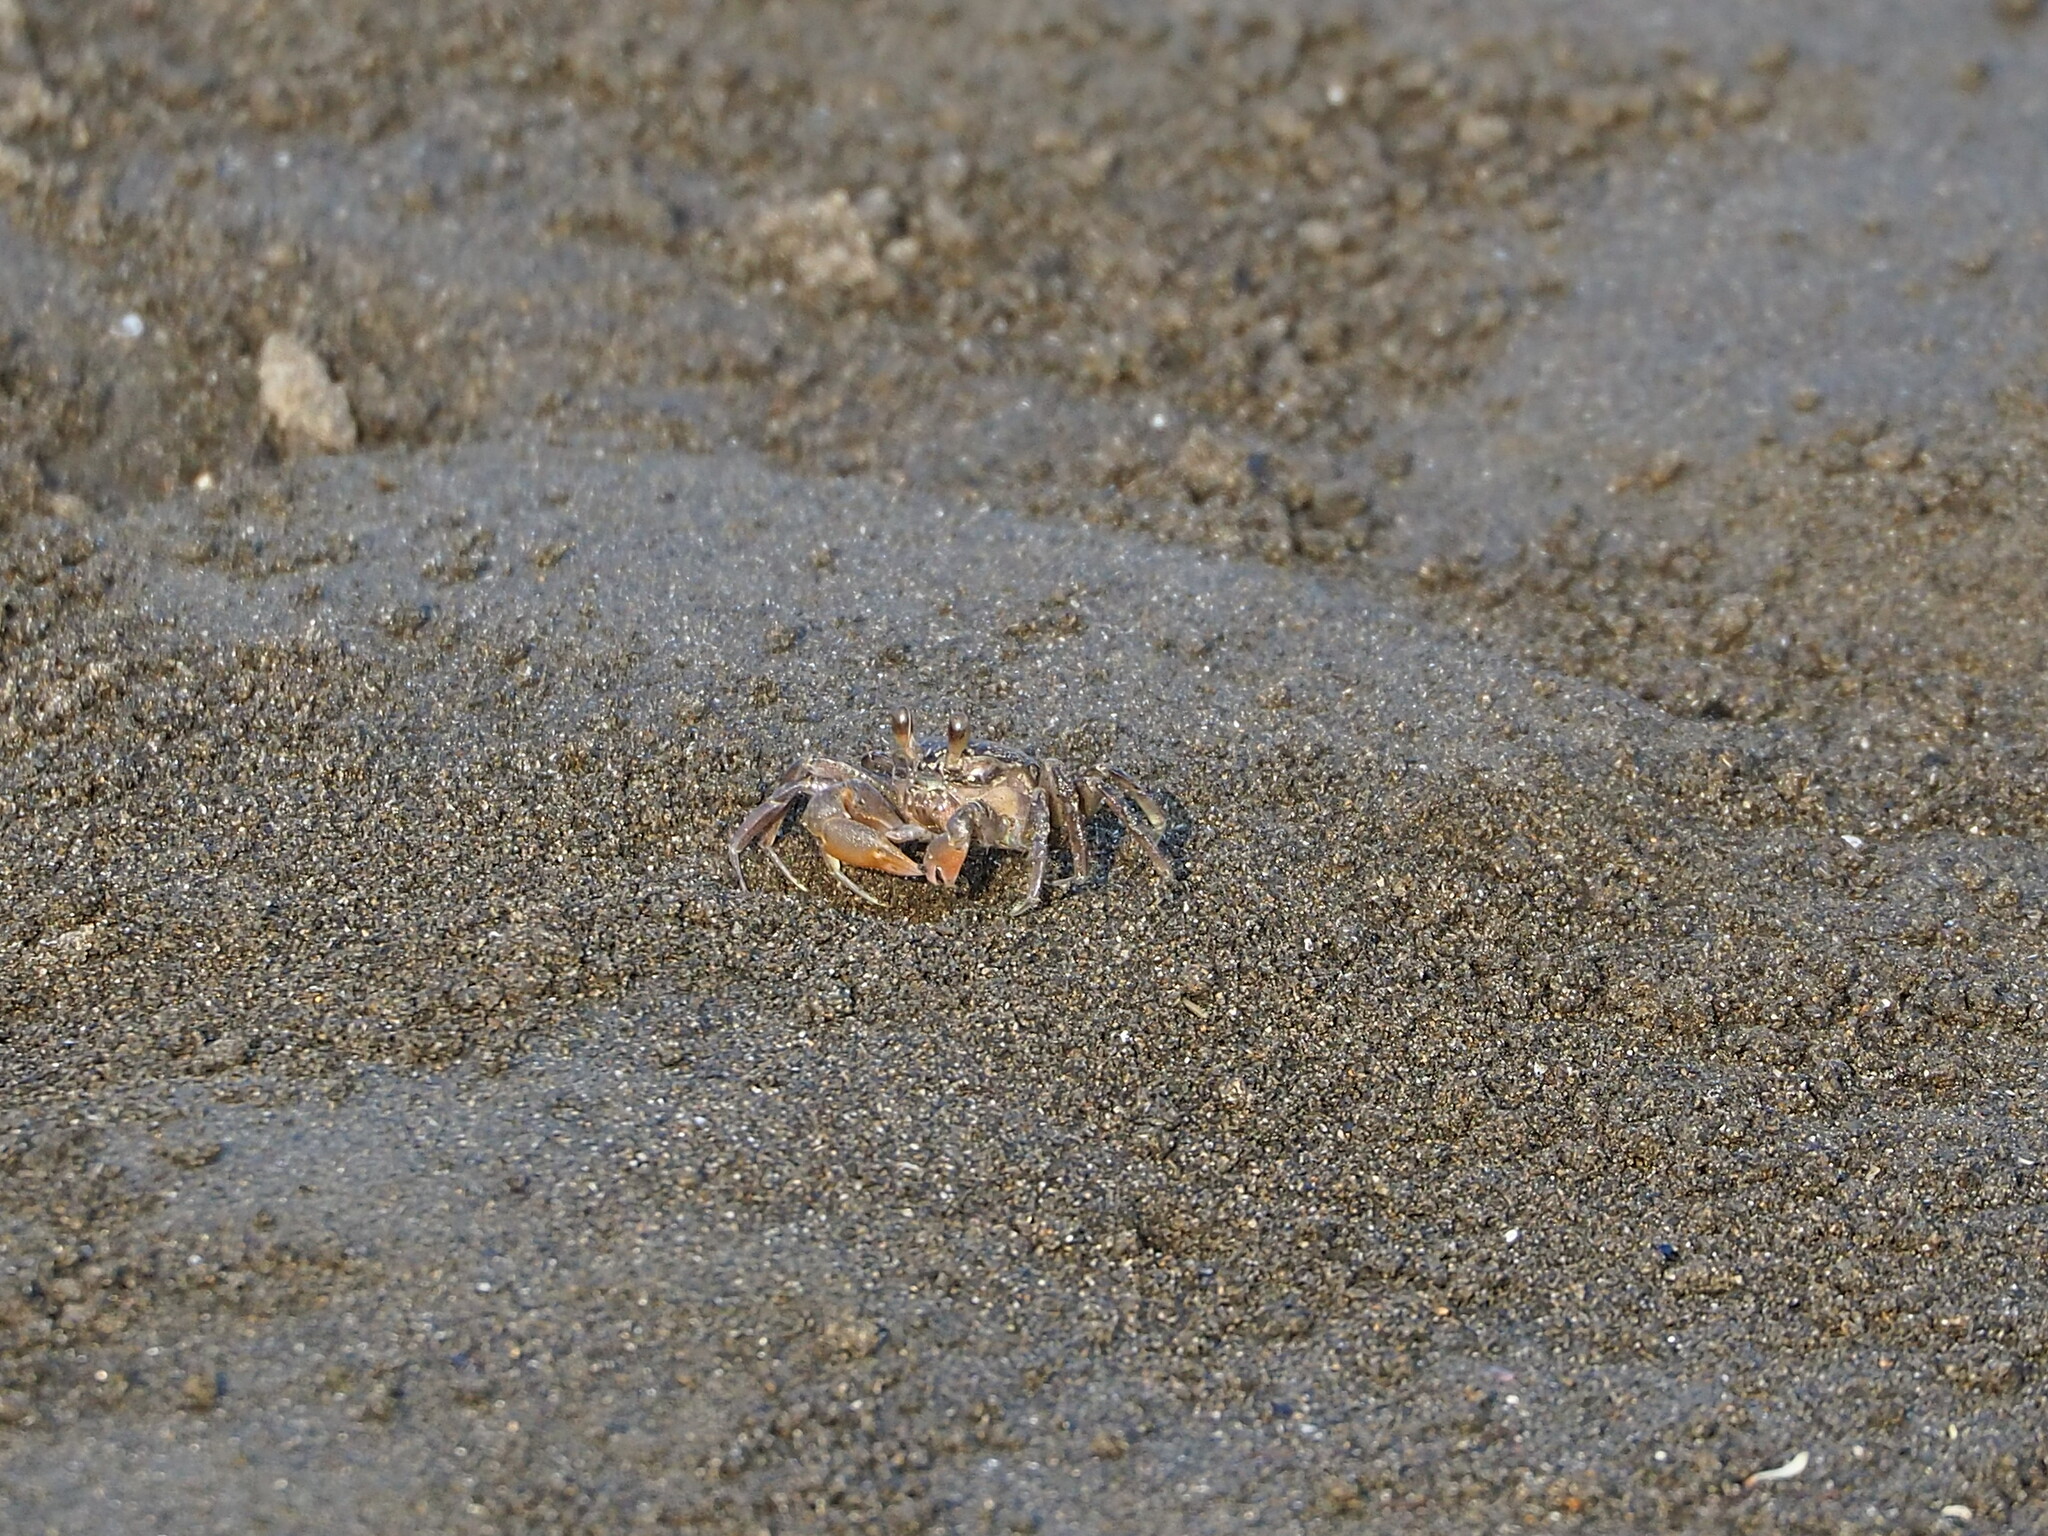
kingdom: Animalia
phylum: Arthropoda
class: Malacostraca
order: Decapoda
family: Ocypodidae
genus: Ocypode
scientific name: Ocypode stimpsoni
